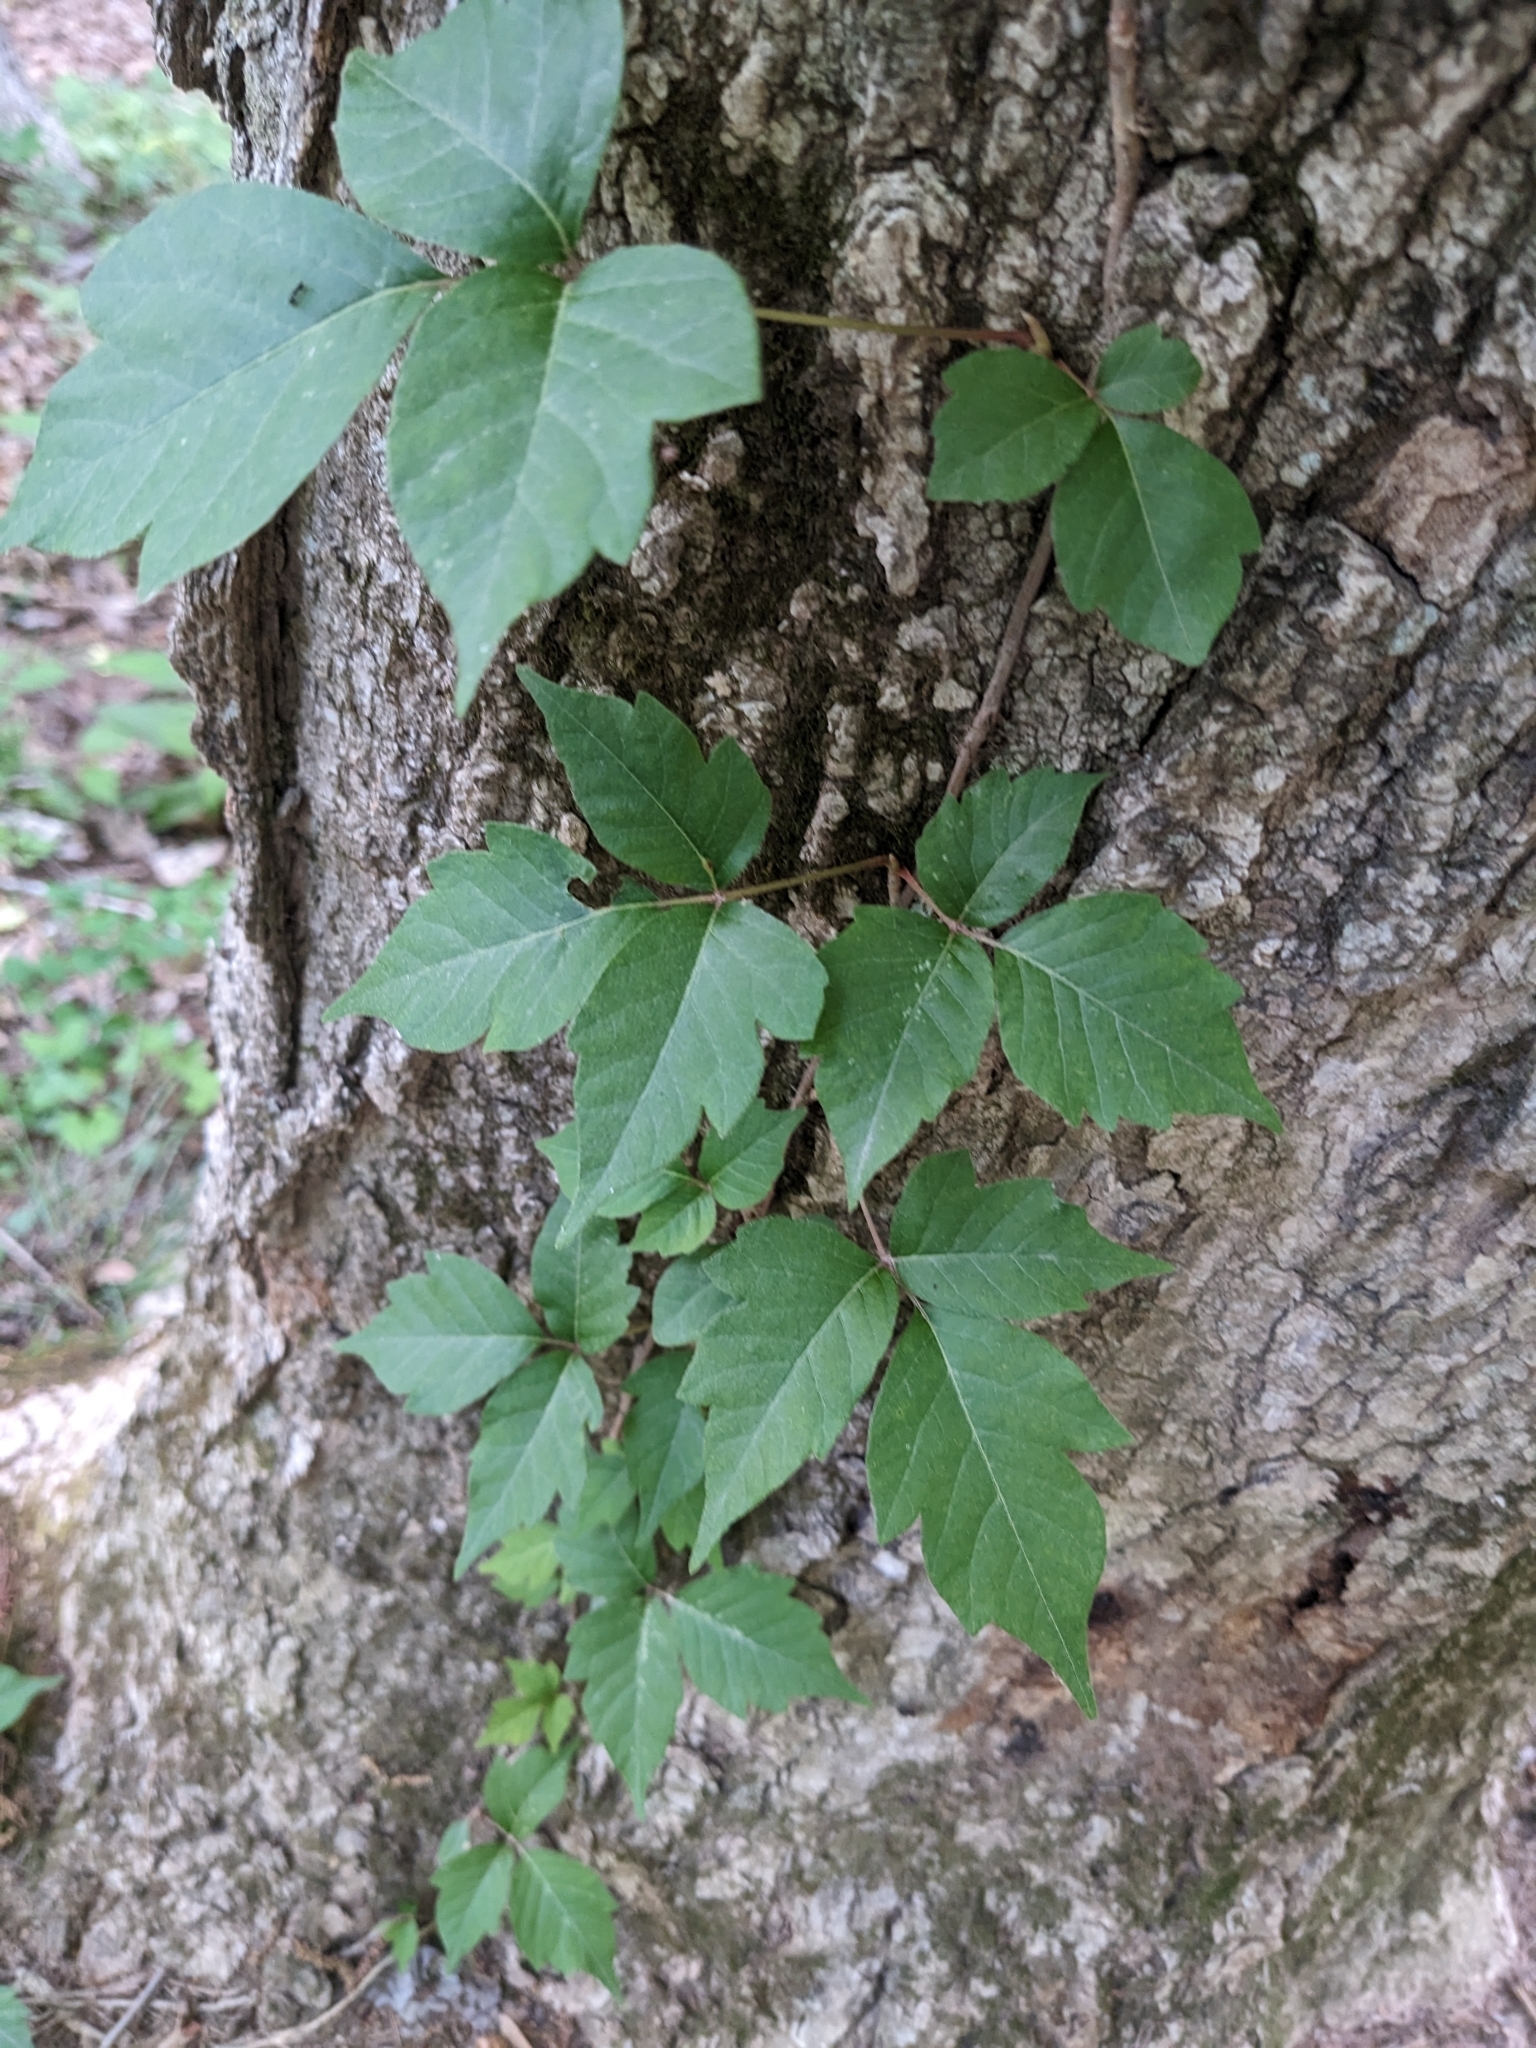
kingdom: Plantae
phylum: Tracheophyta
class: Magnoliopsida
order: Sapindales
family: Anacardiaceae
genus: Toxicodendron
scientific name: Toxicodendron radicans
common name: Poison ivy
